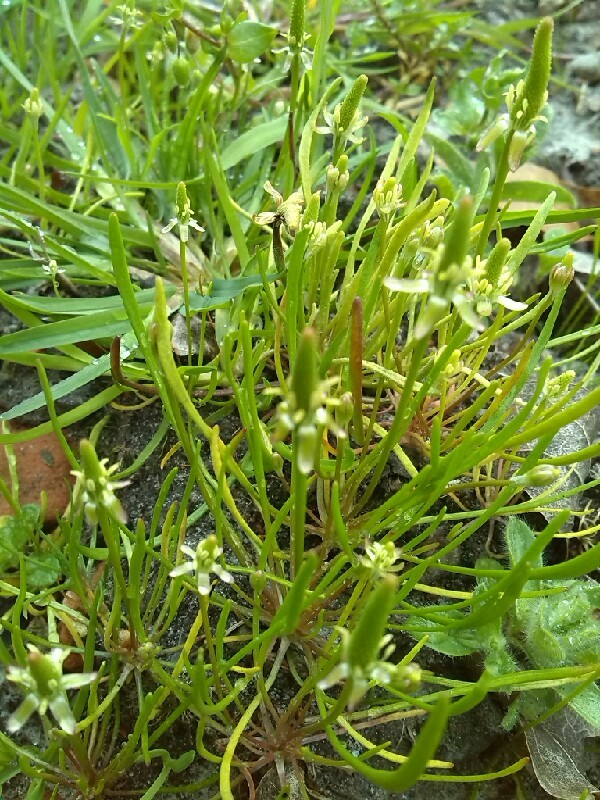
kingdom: Plantae
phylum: Tracheophyta
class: Magnoliopsida
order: Ranunculales
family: Ranunculaceae
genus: Myosurus
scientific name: Myosurus minimus
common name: Mousetail
